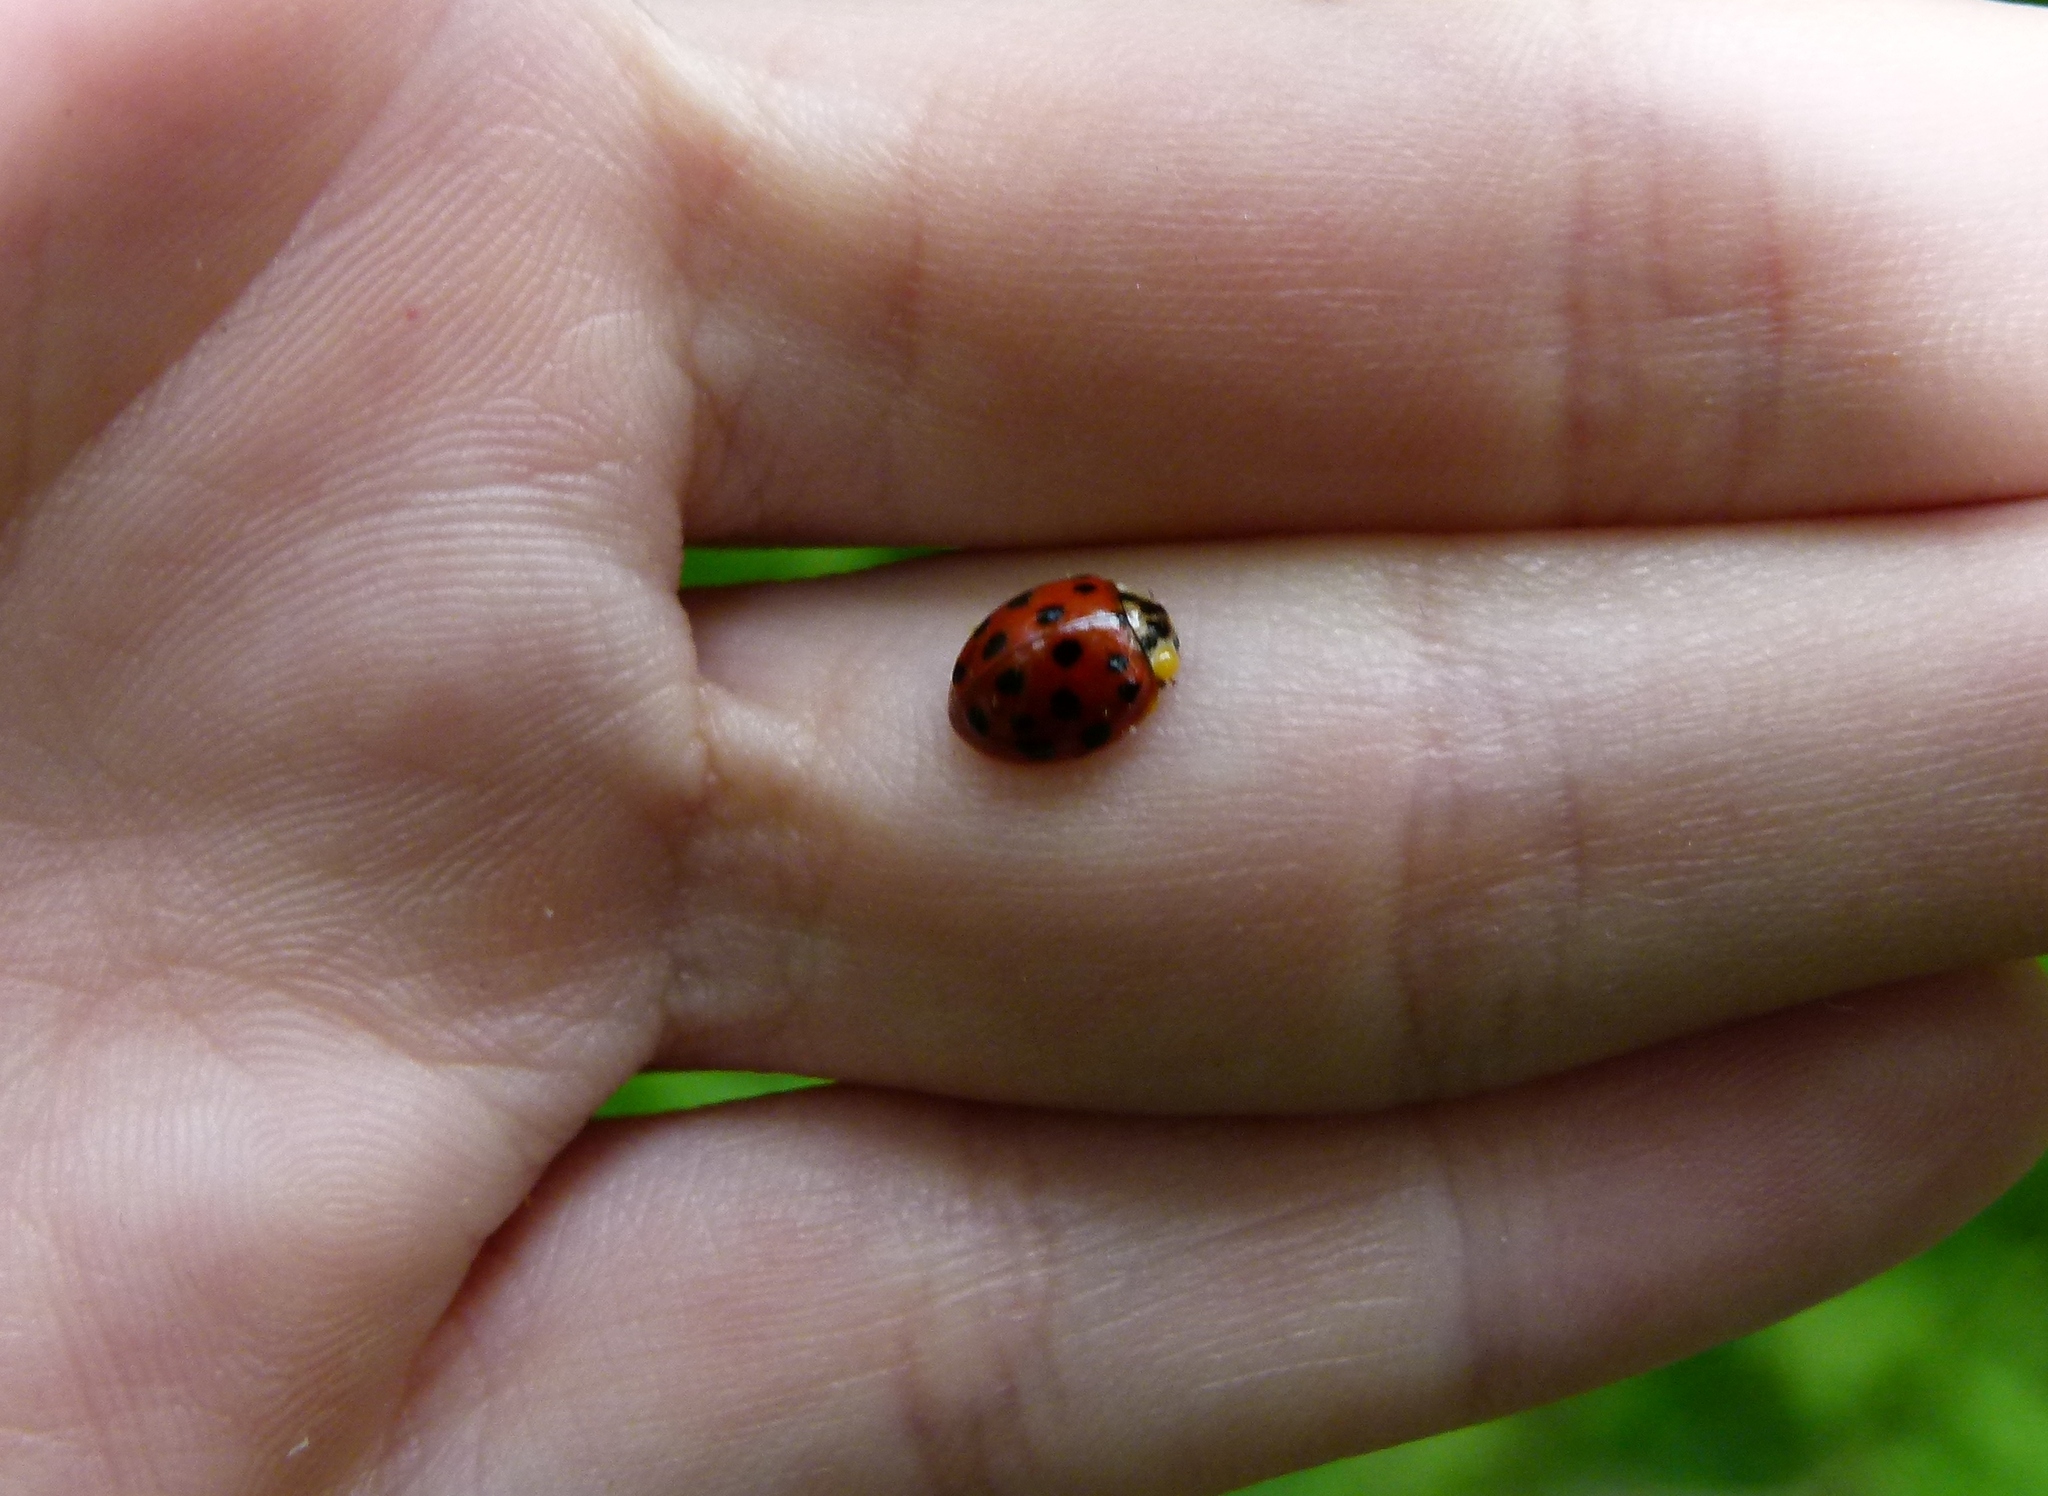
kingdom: Animalia
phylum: Arthropoda
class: Insecta
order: Coleoptera
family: Coccinellidae
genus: Harmonia
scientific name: Harmonia axyridis
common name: Harlequin ladybird
